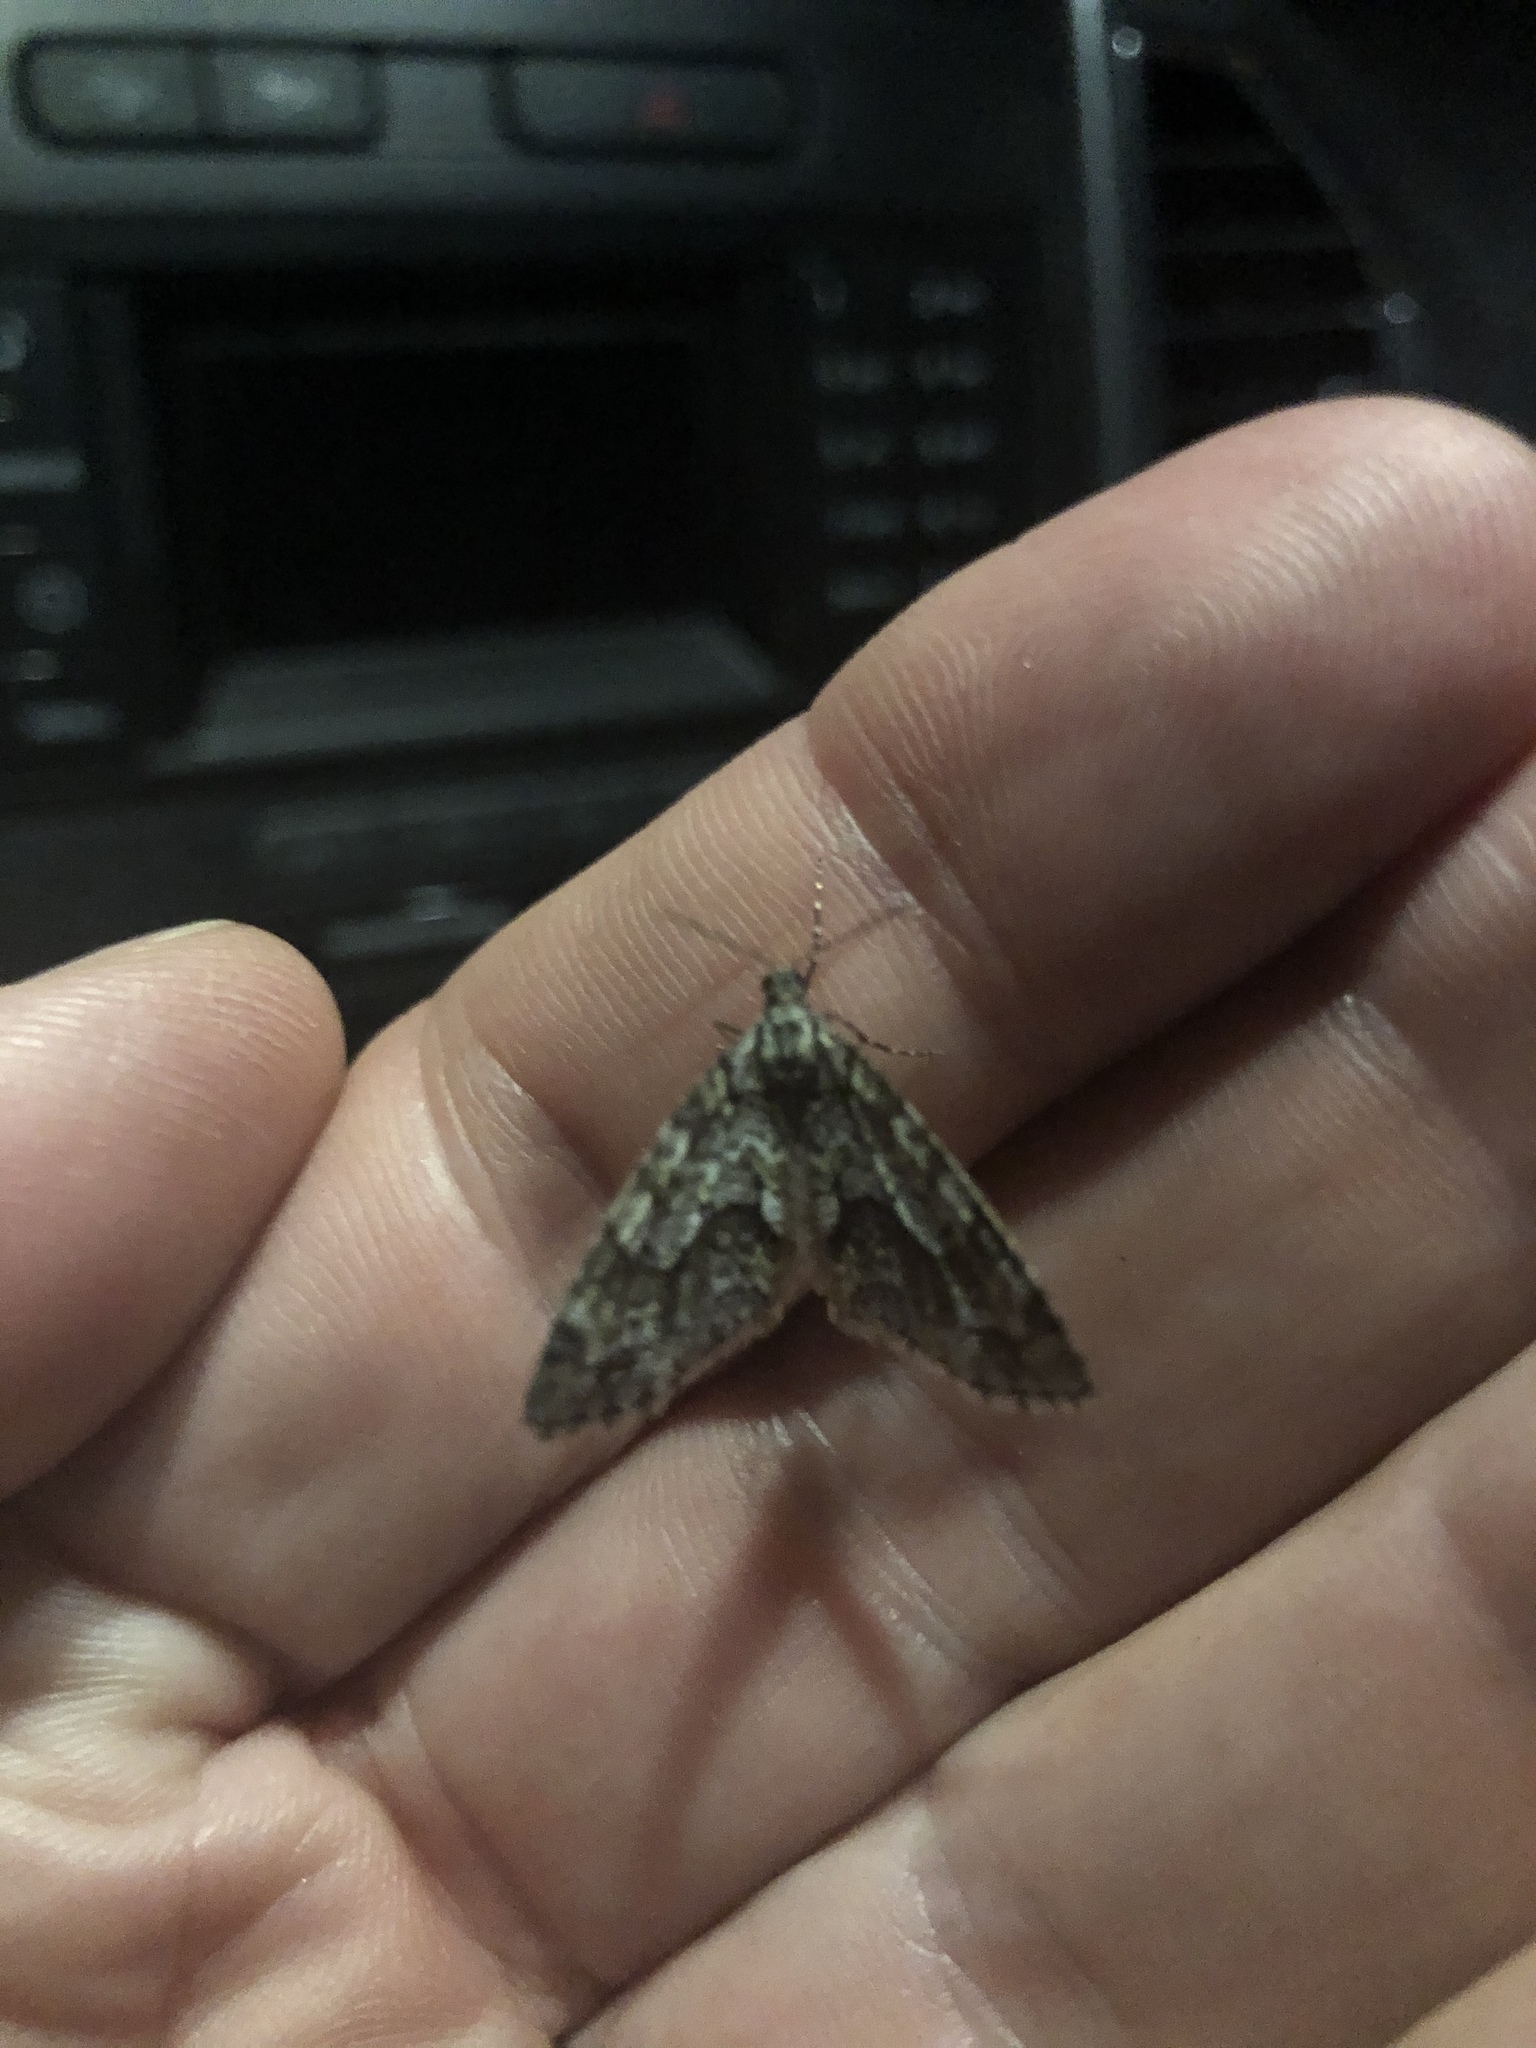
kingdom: Animalia
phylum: Arthropoda
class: Insecta
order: Lepidoptera
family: Geometridae
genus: Cladara
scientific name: Cladara limitaria
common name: Mottled gray carpet
